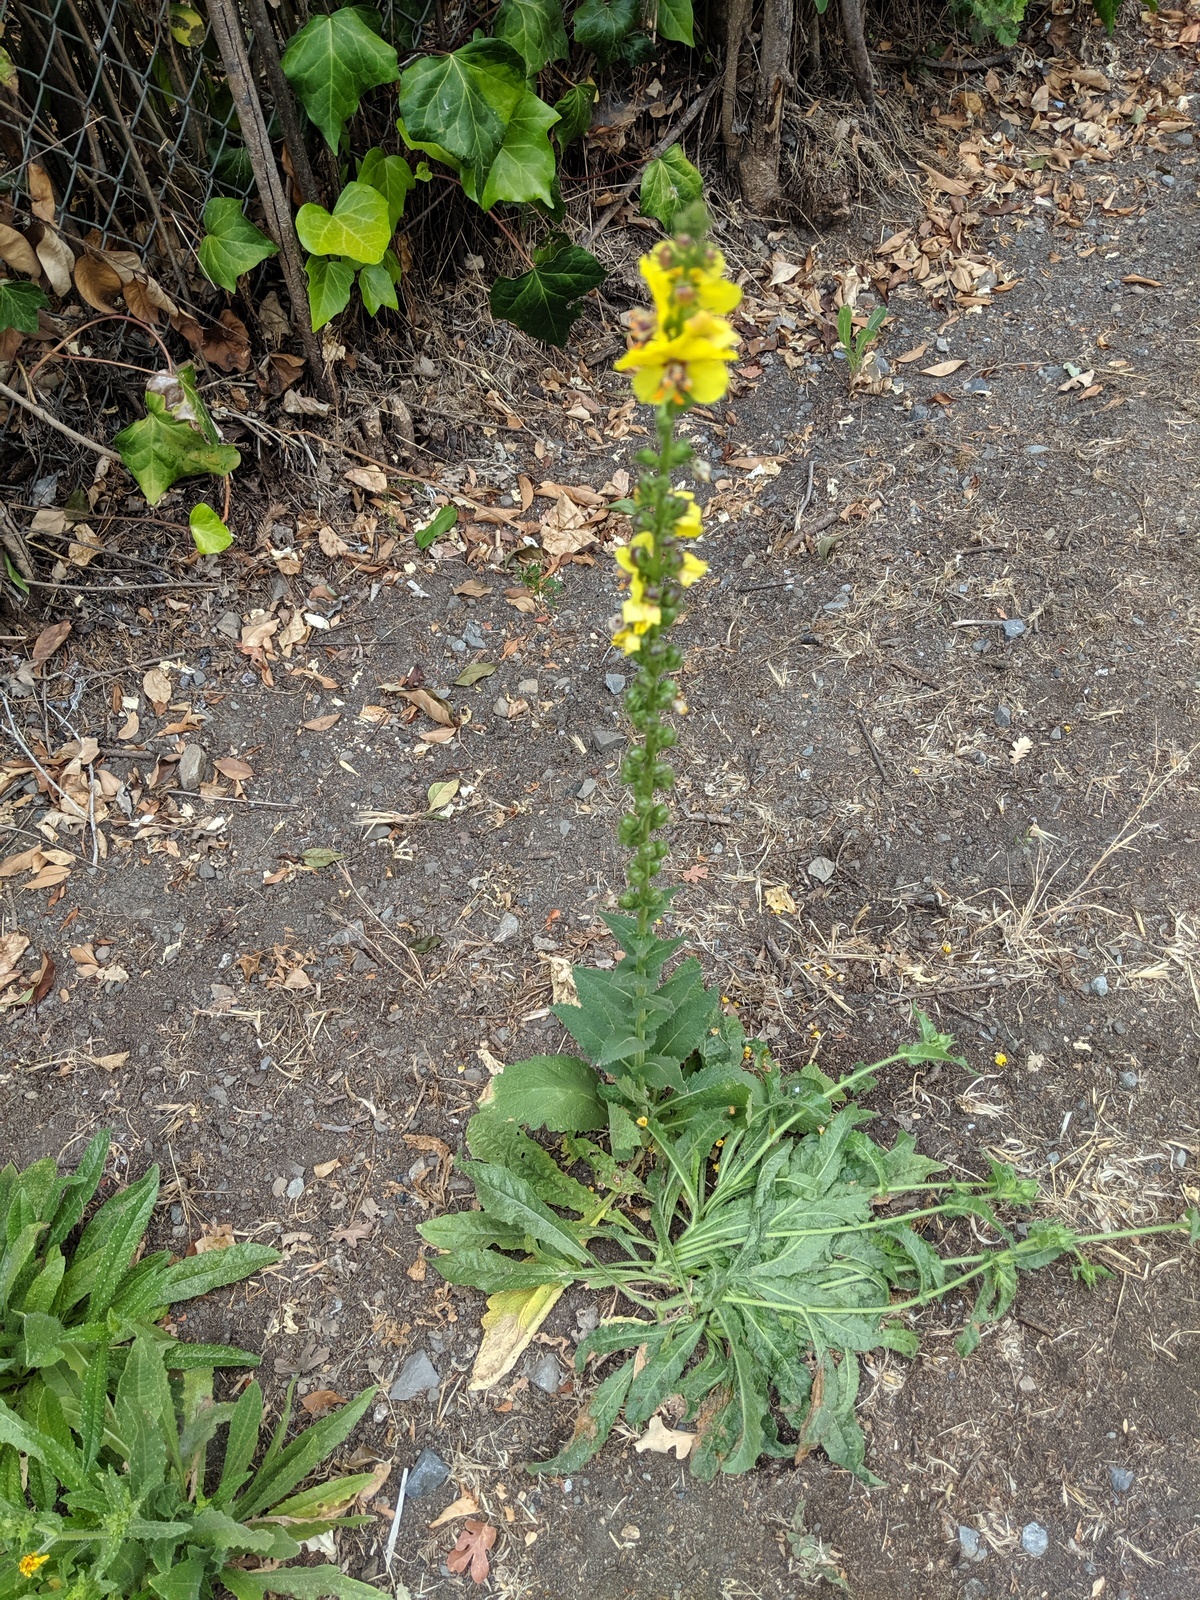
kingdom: Plantae
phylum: Tracheophyta
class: Magnoliopsida
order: Lamiales
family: Scrophulariaceae
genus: Verbascum
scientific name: Verbascum virgatum
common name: Twiggy mullein
